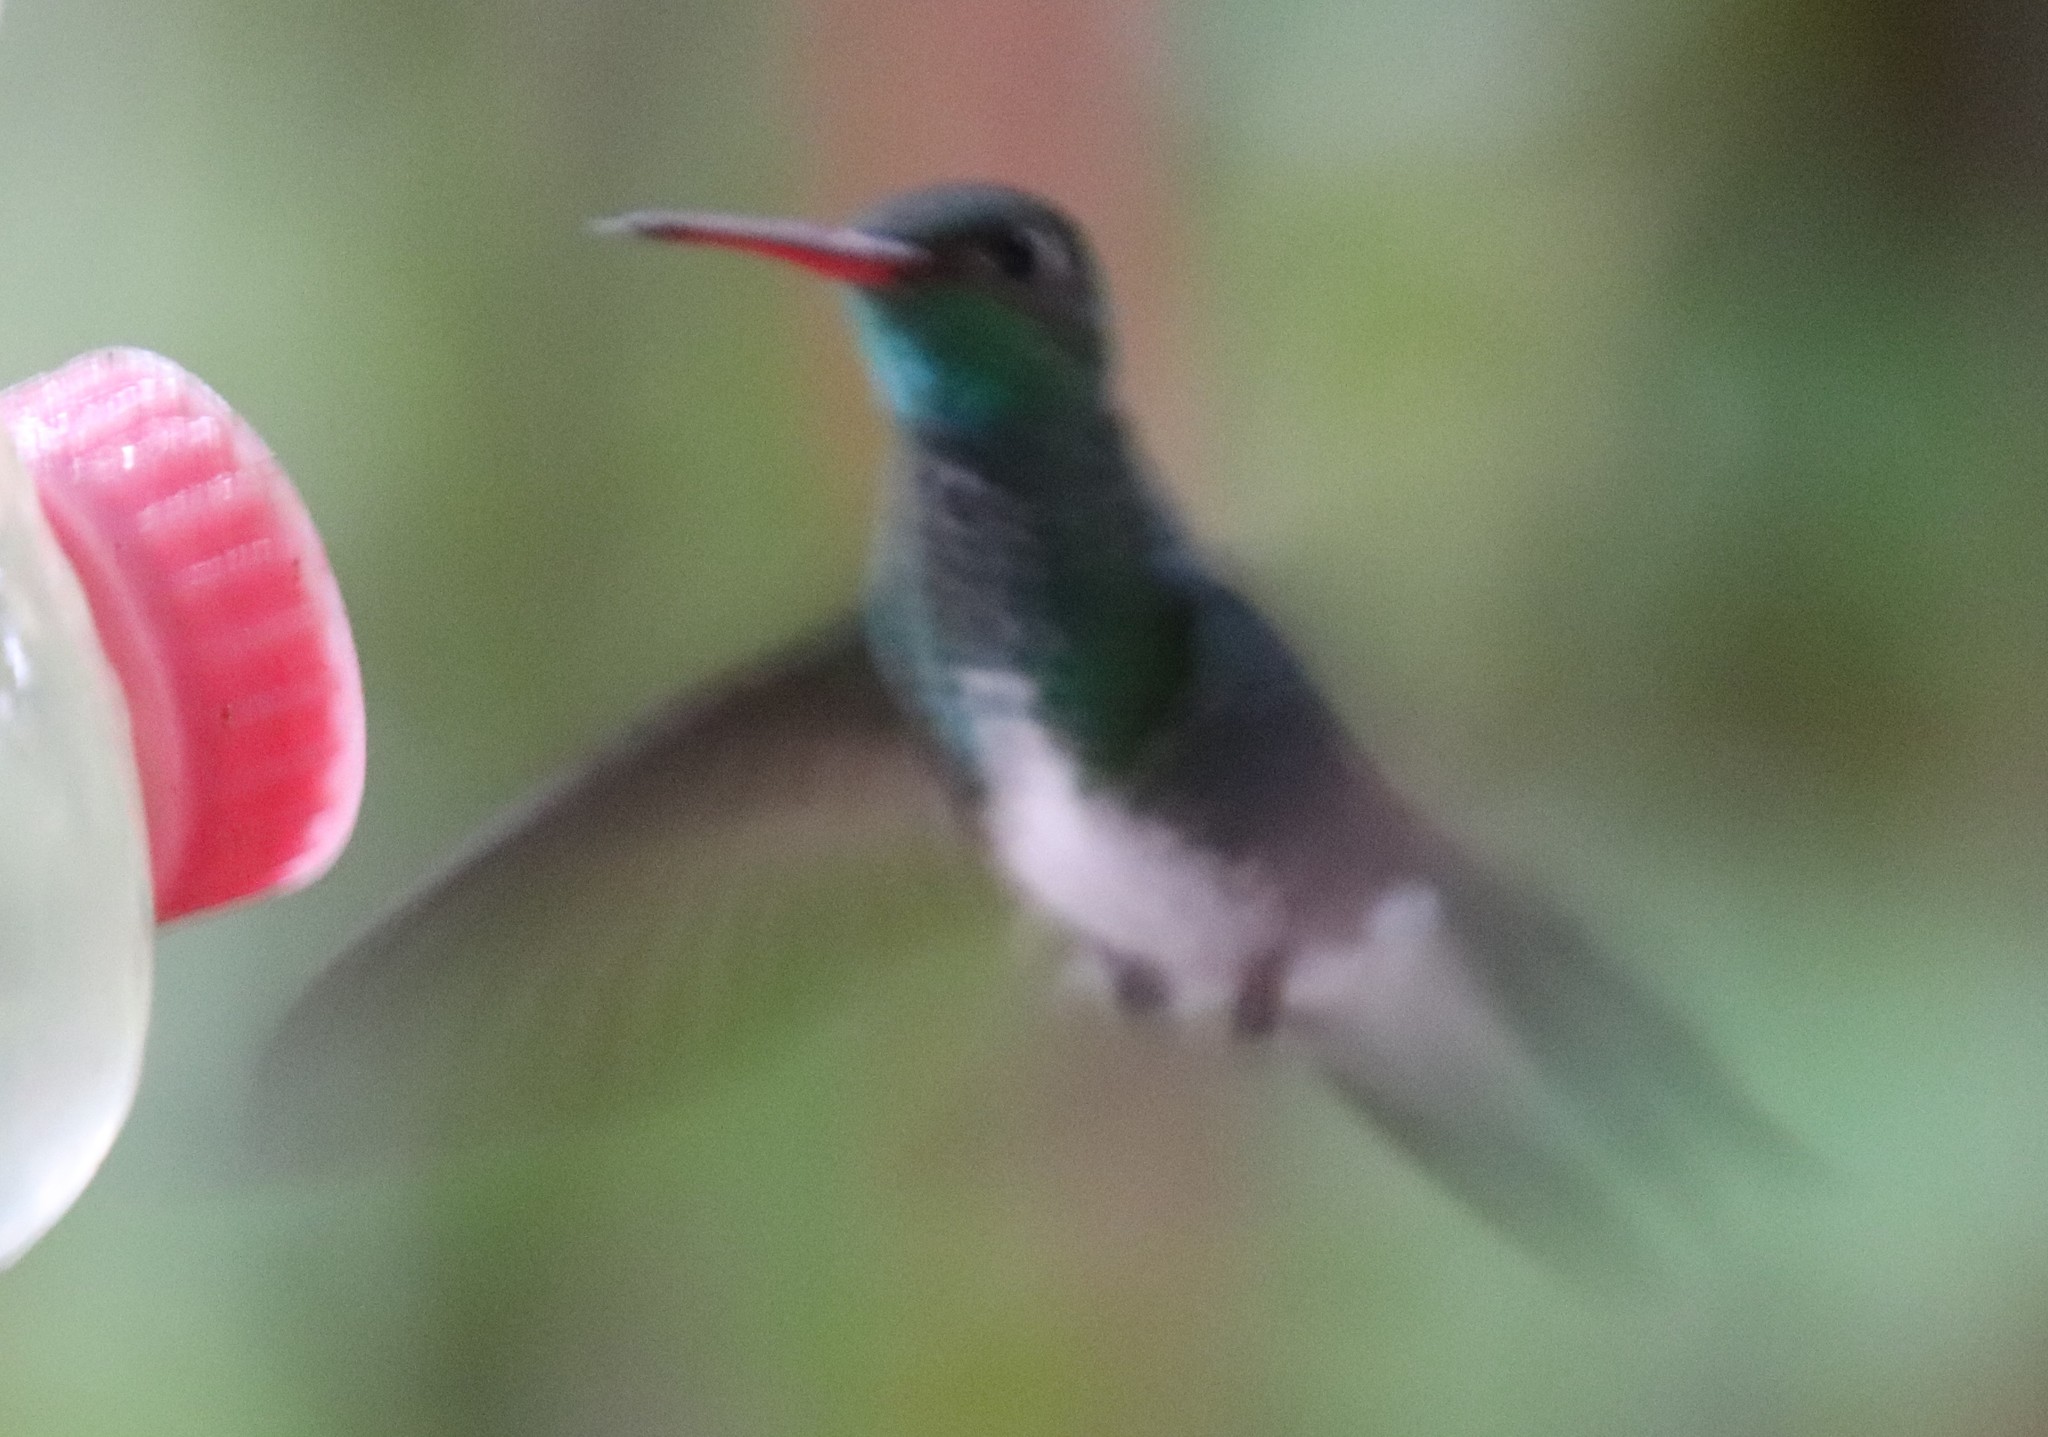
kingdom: Animalia
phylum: Chordata
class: Aves
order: Apodiformes
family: Trochilidae
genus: Chionomesa
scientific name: Chionomesa fimbriata
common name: Glittering-throated emerald
